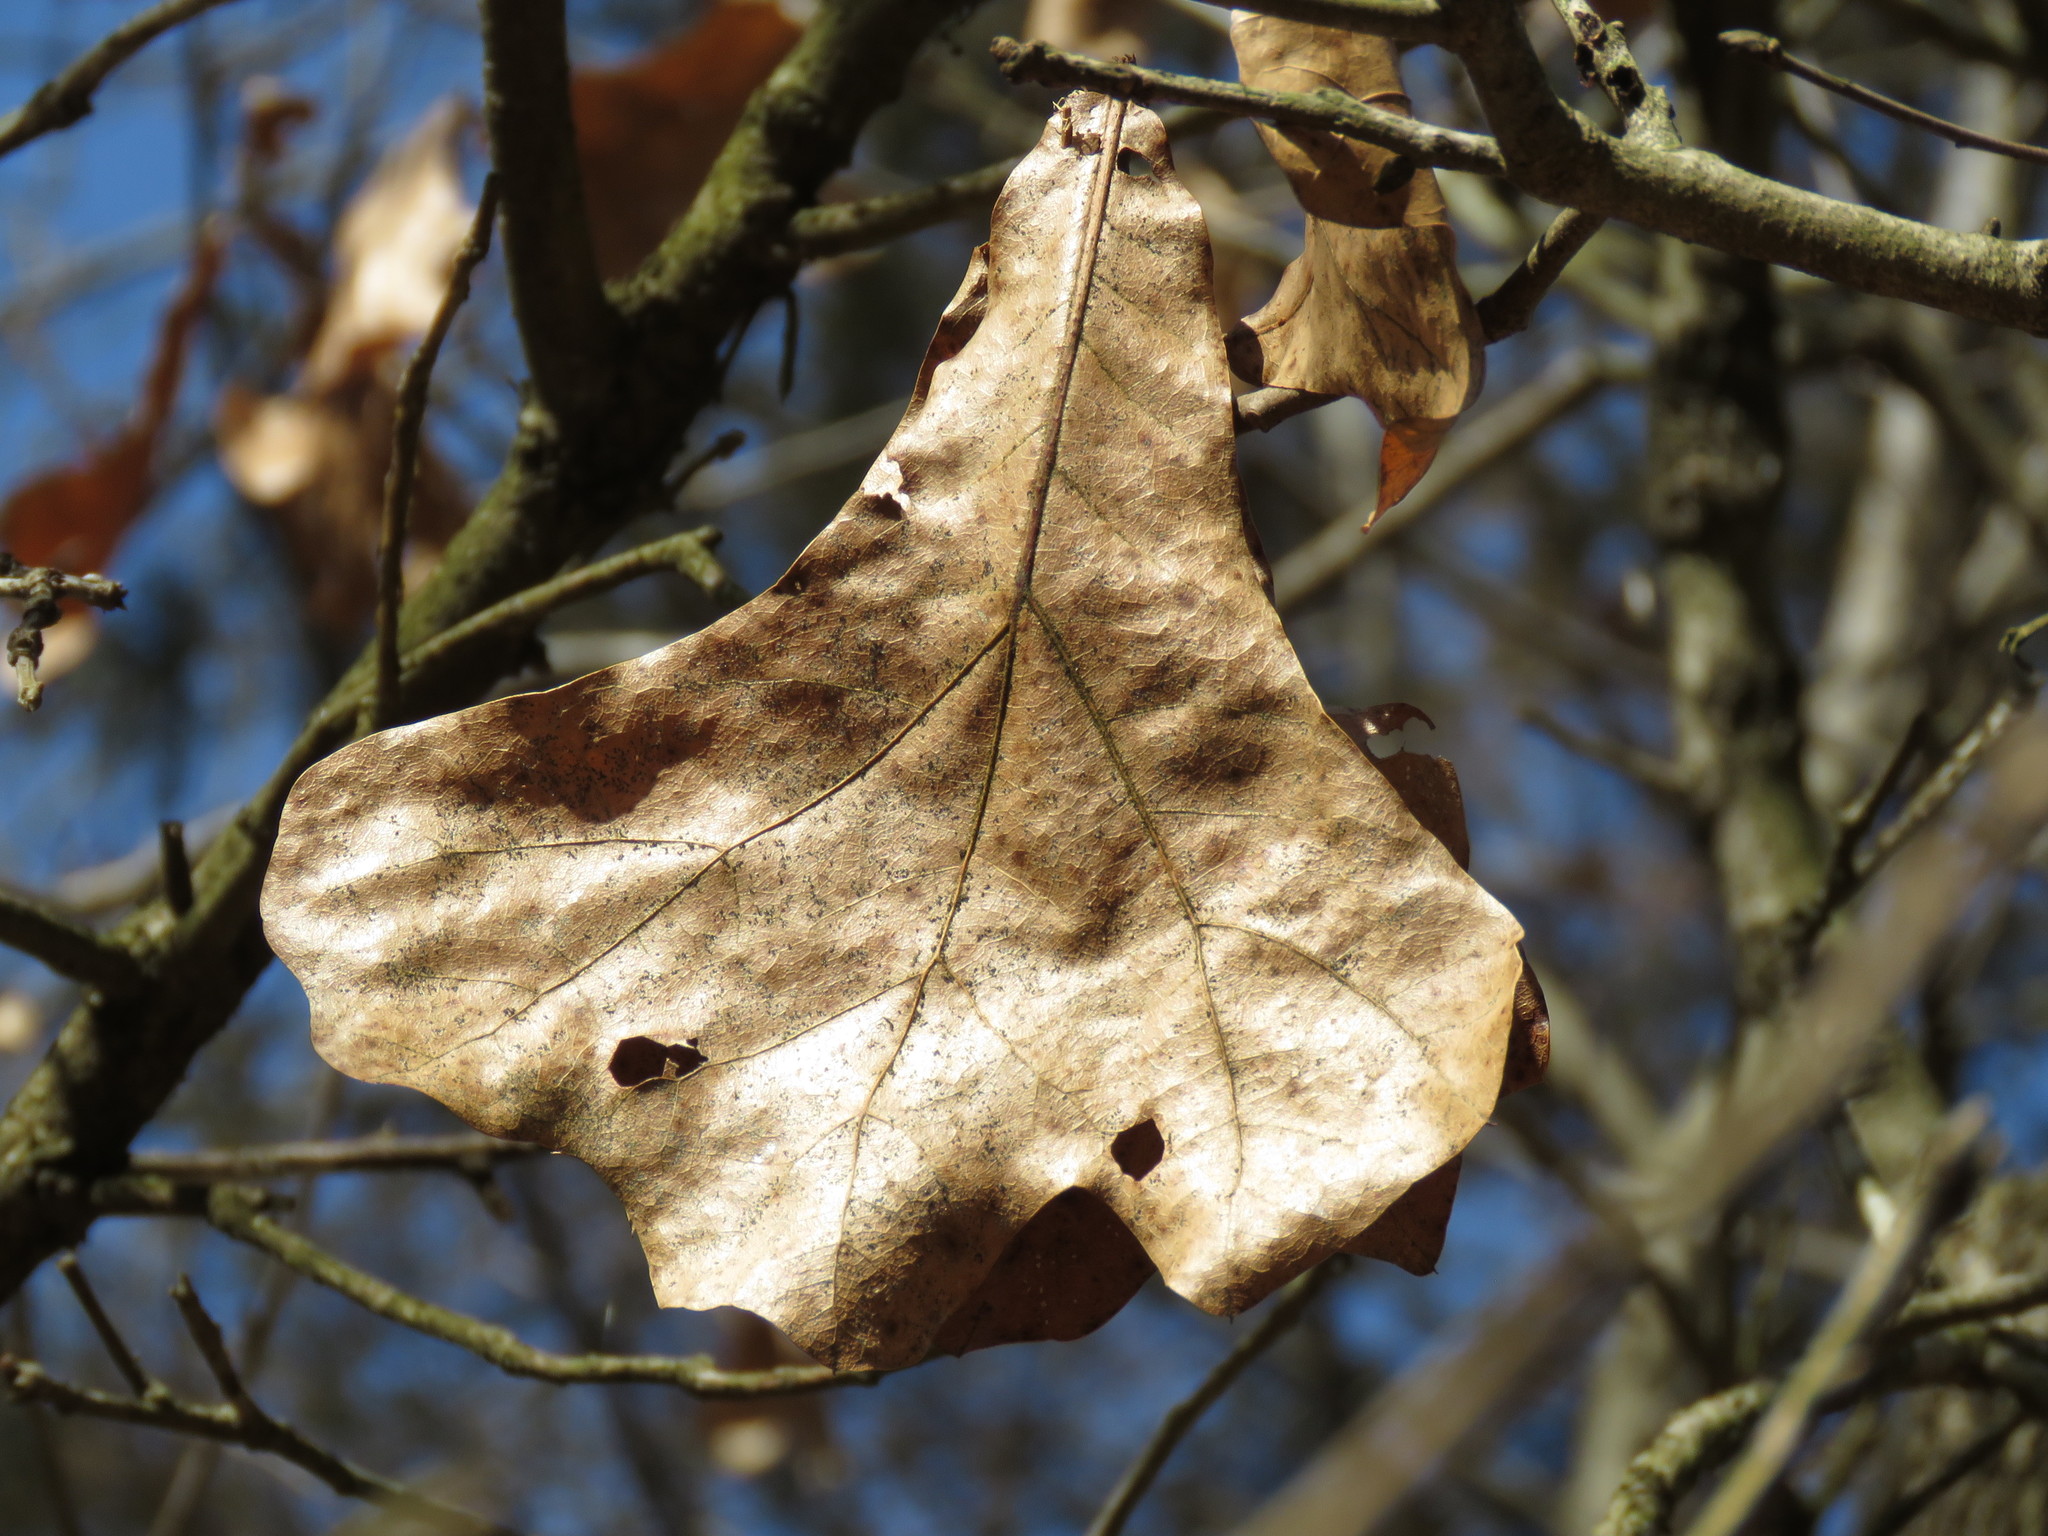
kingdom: Plantae
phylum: Tracheophyta
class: Magnoliopsida
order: Fagales
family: Fagaceae
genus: Quercus
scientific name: Quercus marilandica
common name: Blackjack oak
